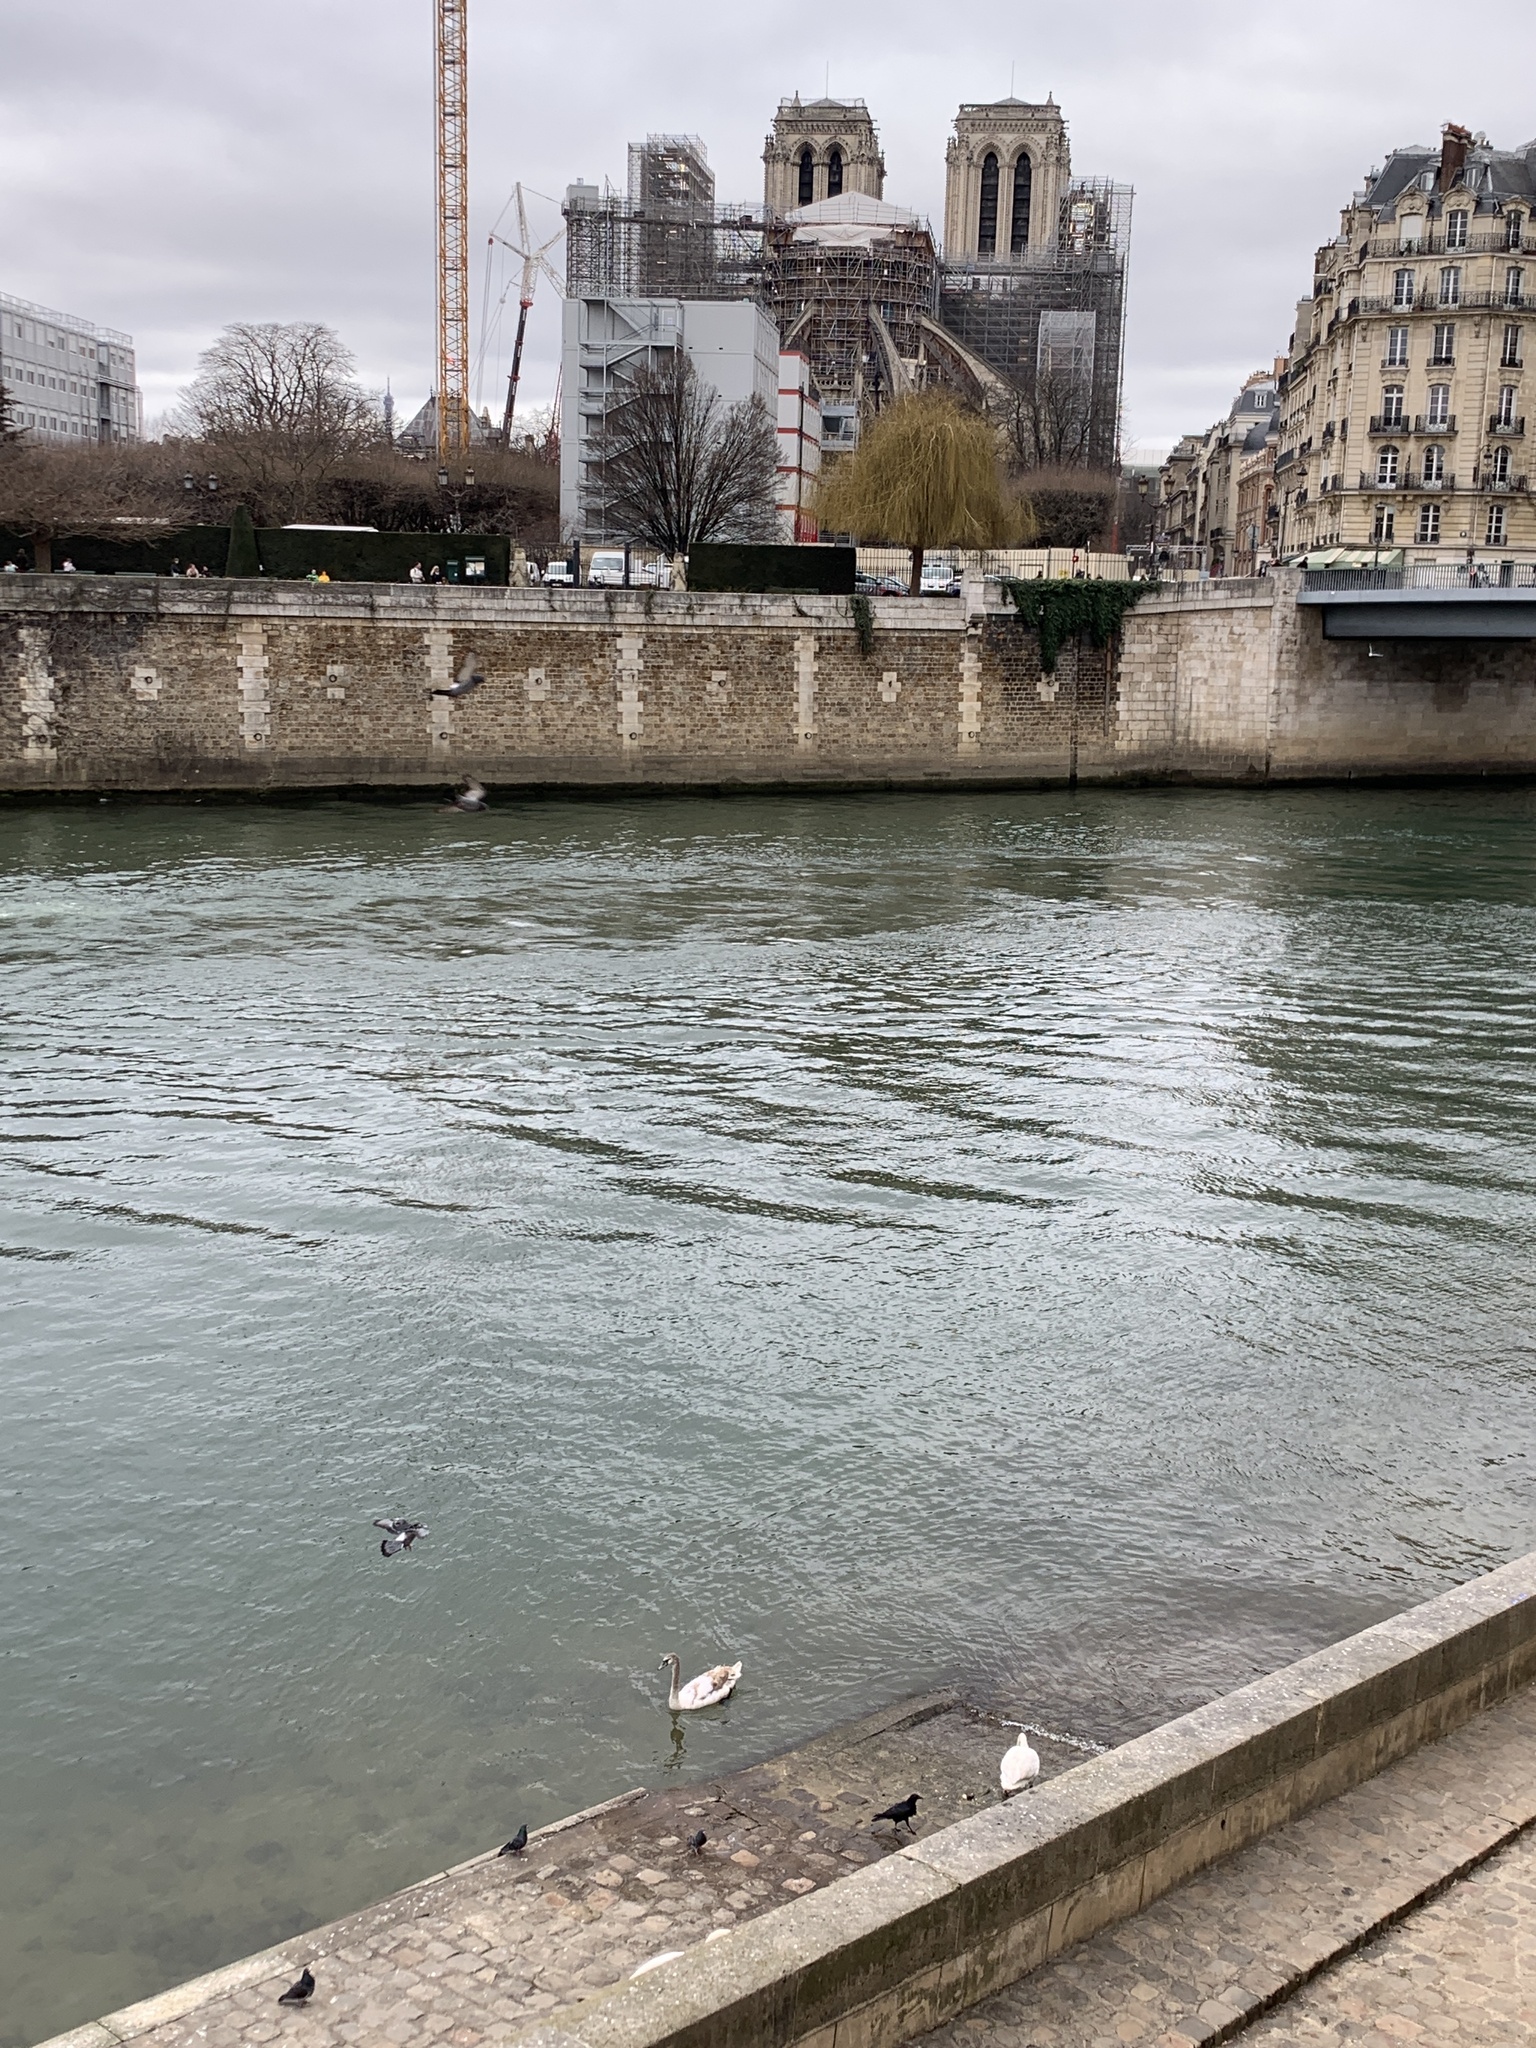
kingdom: Animalia
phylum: Chordata
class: Aves
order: Anseriformes
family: Anatidae
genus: Cygnus
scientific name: Cygnus olor
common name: Mute swan
